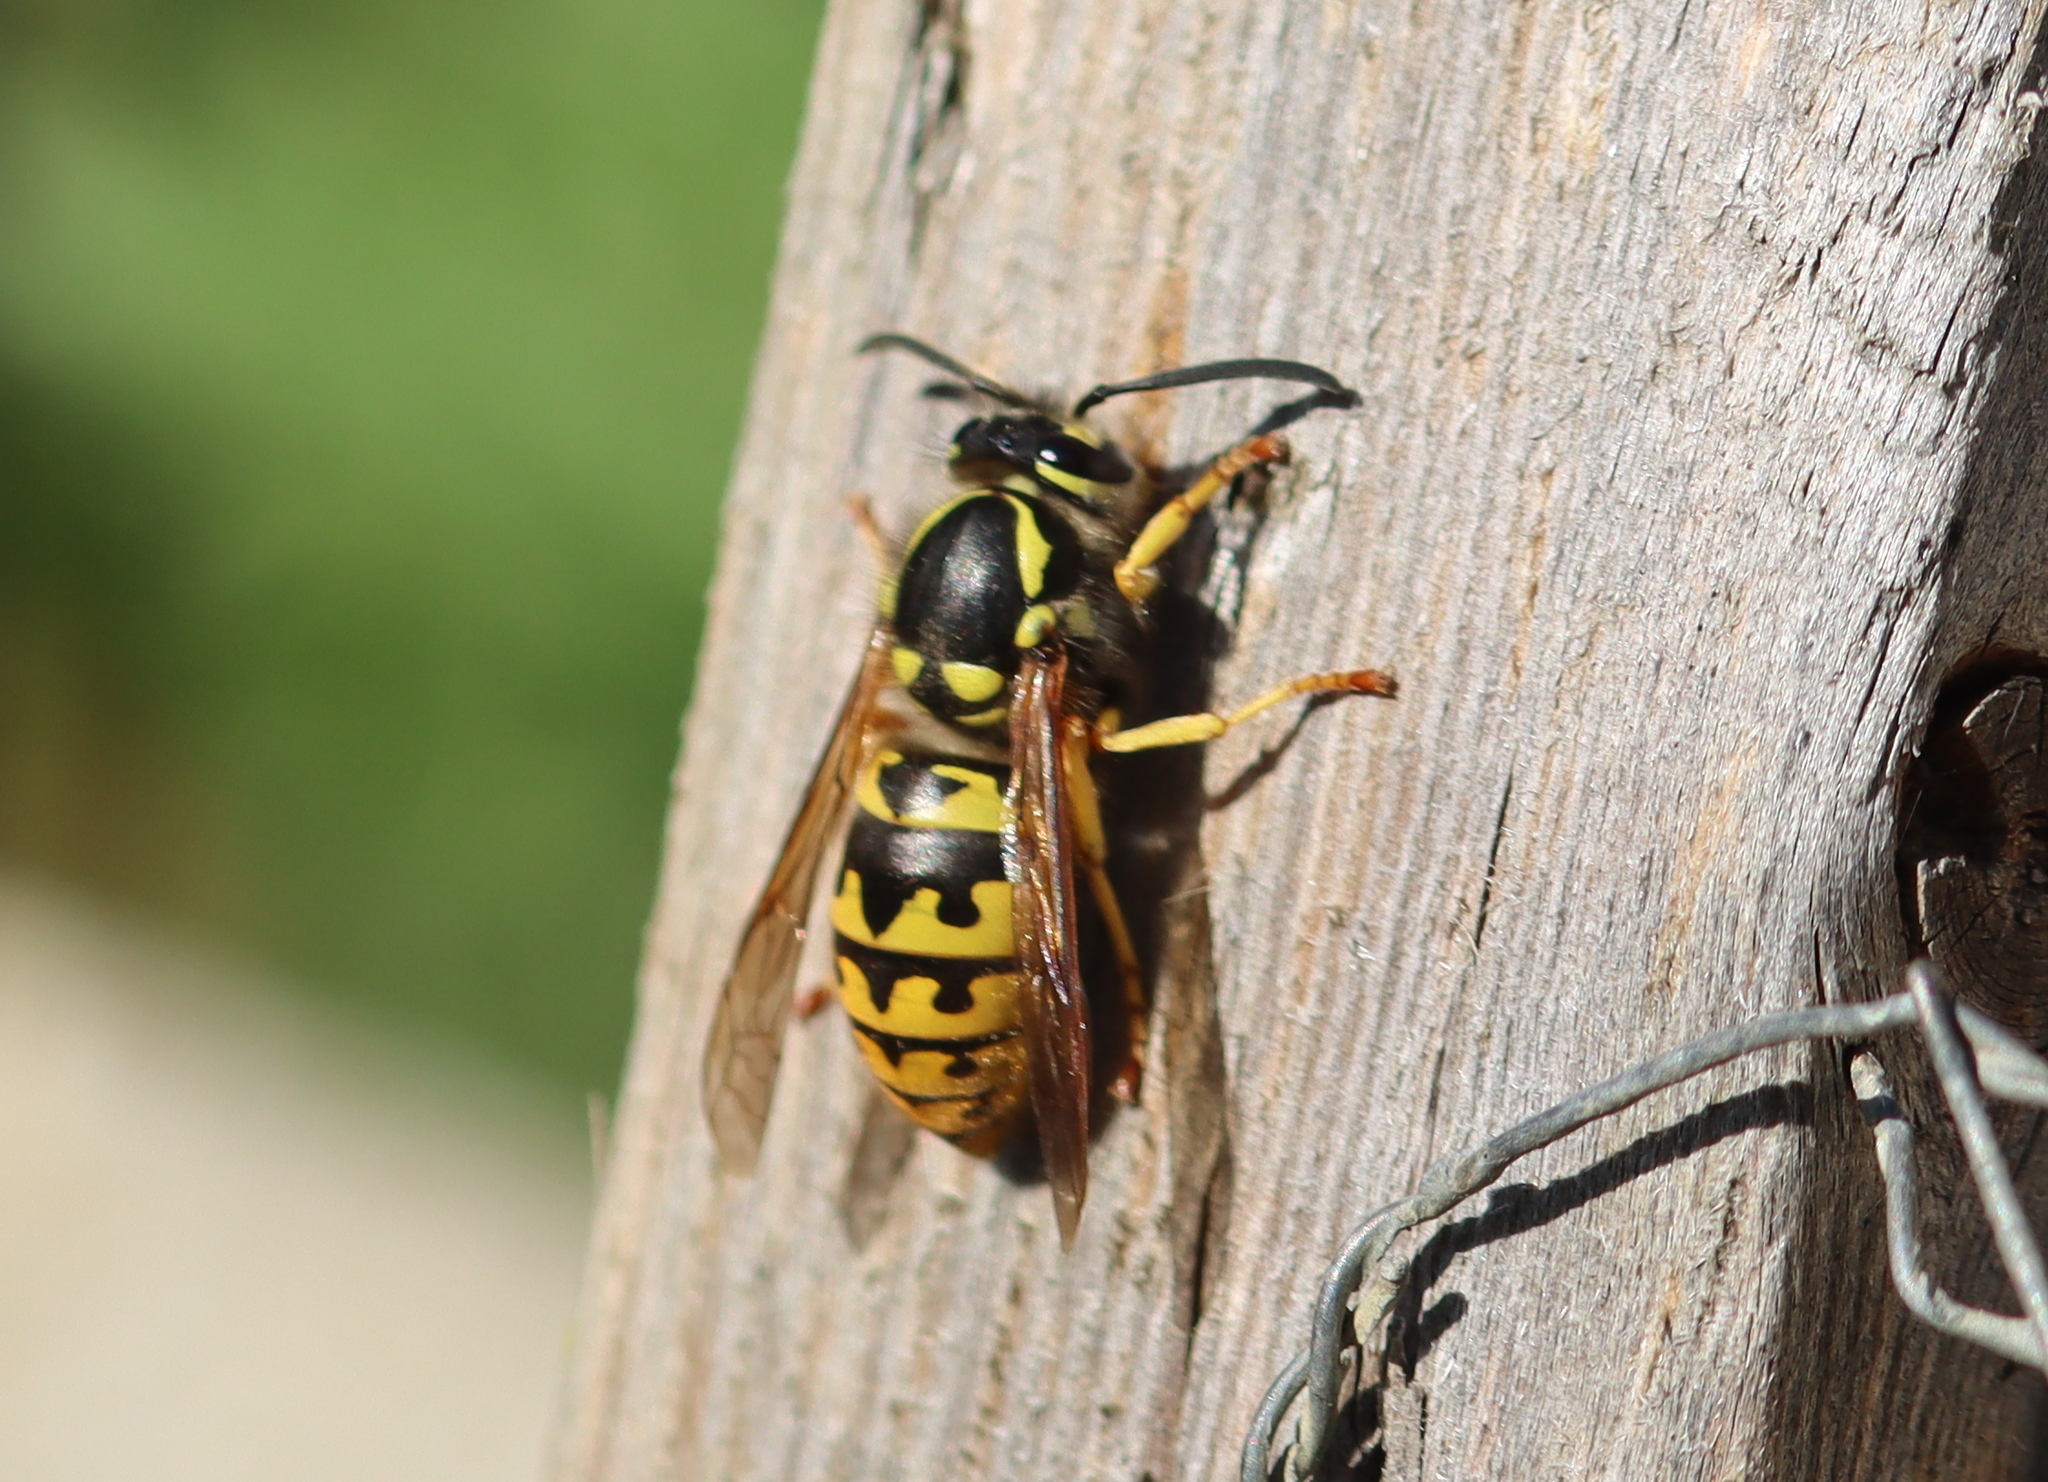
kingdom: Animalia
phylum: Arthropoda
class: Insecta
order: Hymenoptera
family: Vespidae
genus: Vespula
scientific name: Vespula germanica
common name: German wasp
